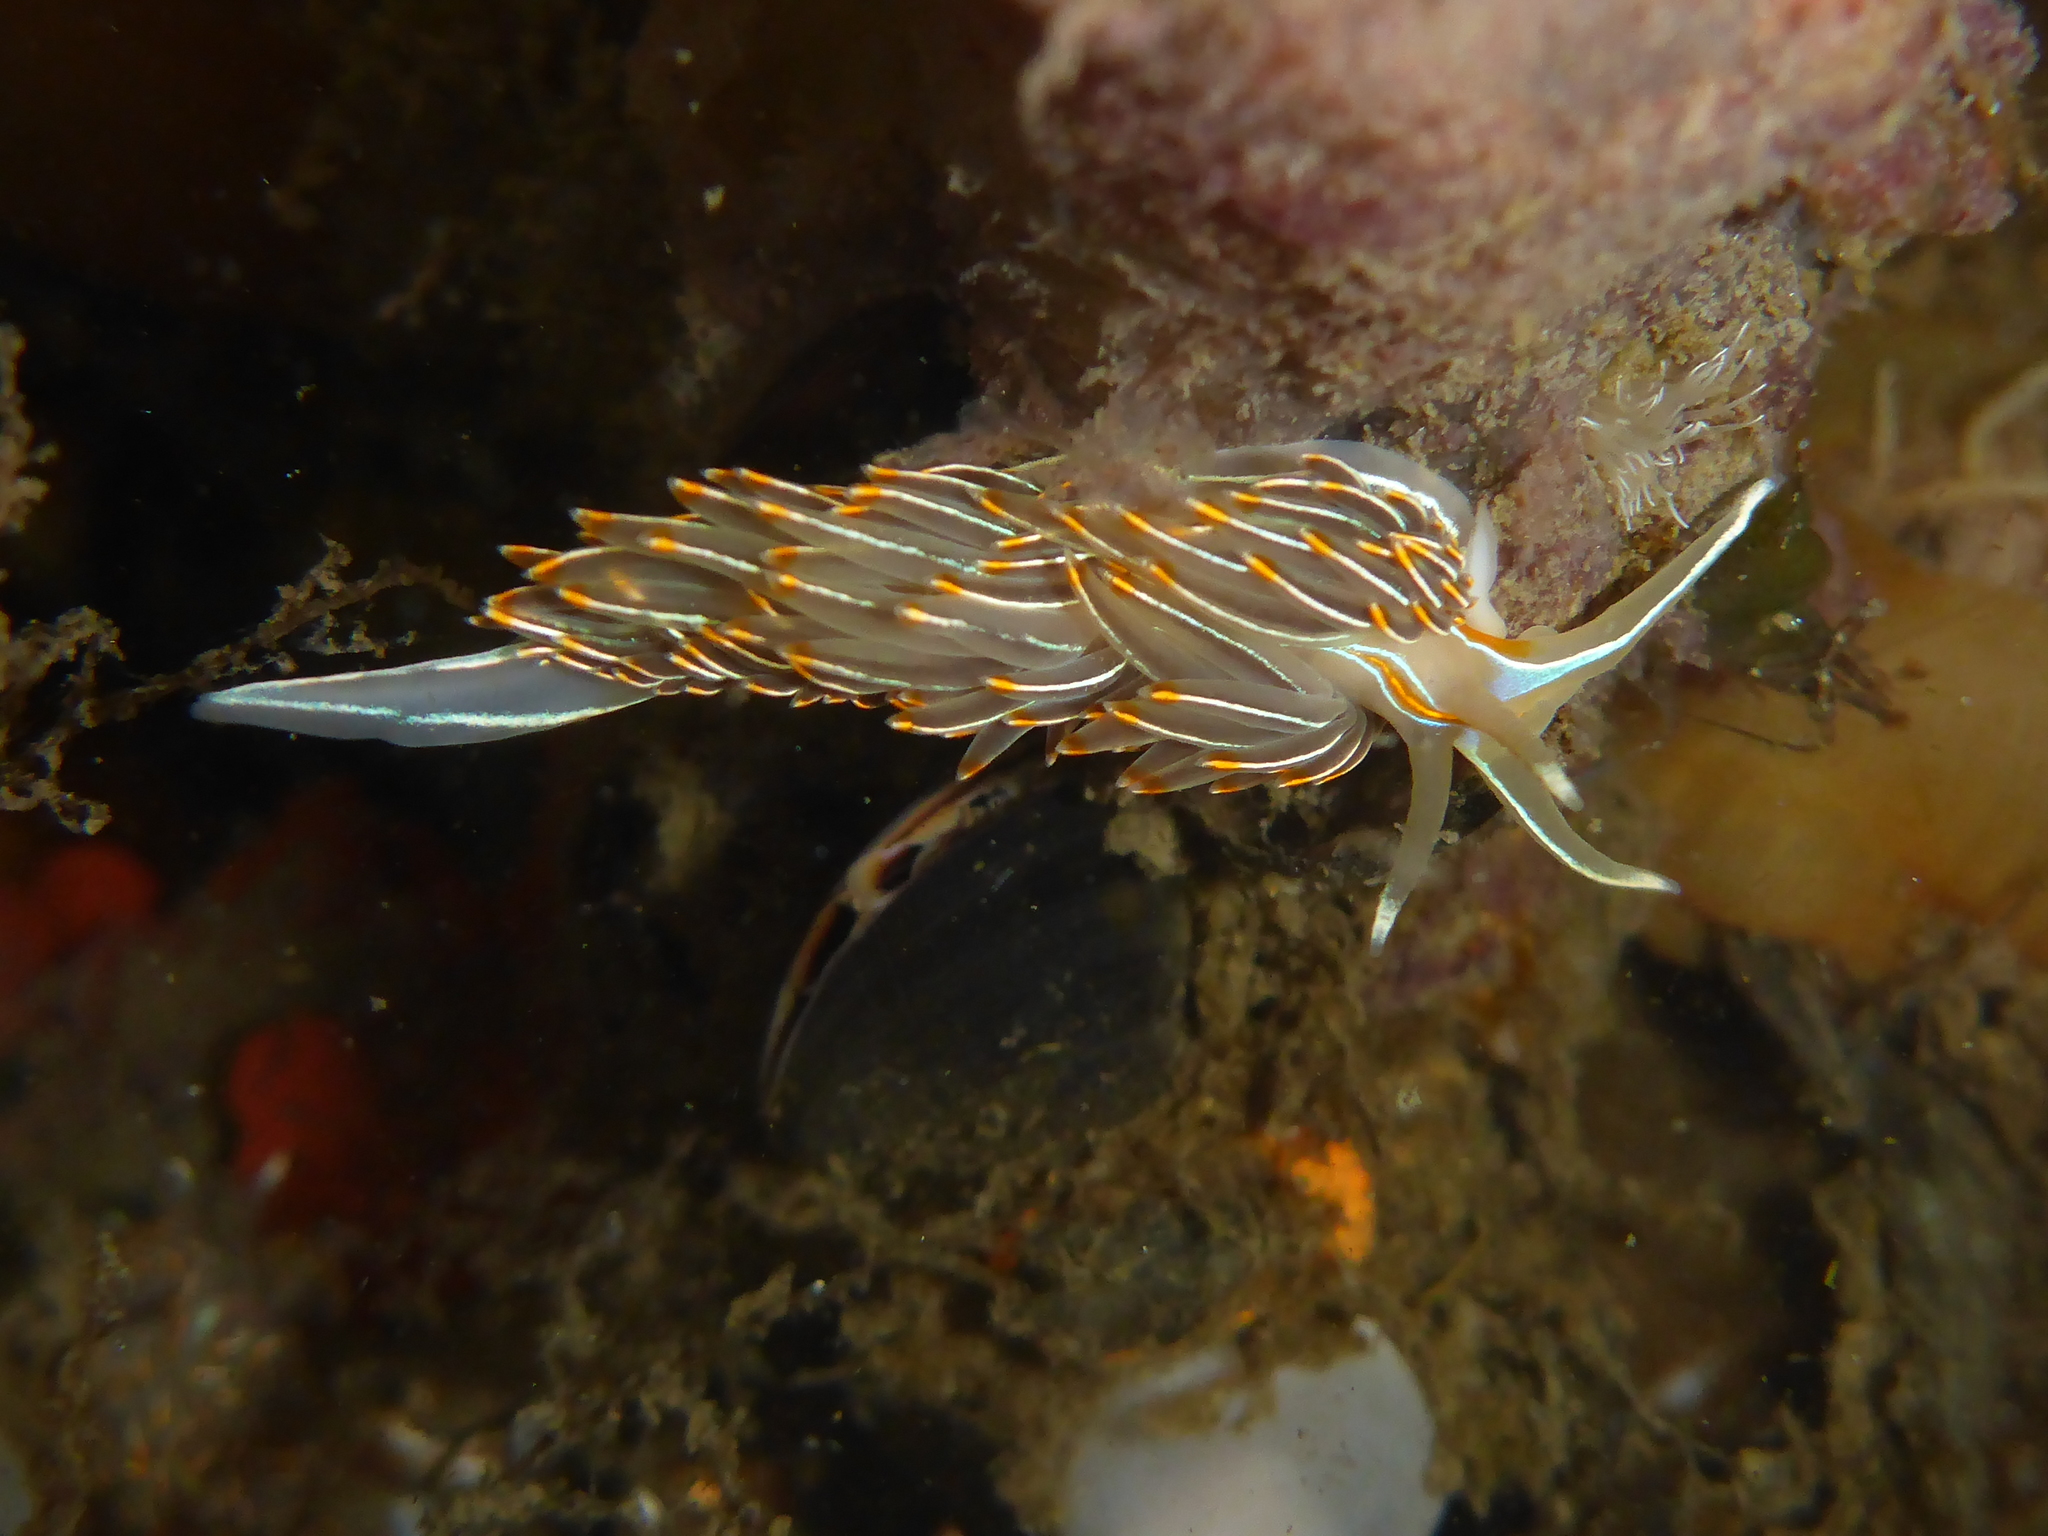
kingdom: Animalia
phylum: Mollusca
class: Gastropoda
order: Nudibranchia
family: Myrrhinidae
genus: Hermissenda
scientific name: Hermissenda crassicornis
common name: Hermissenda
